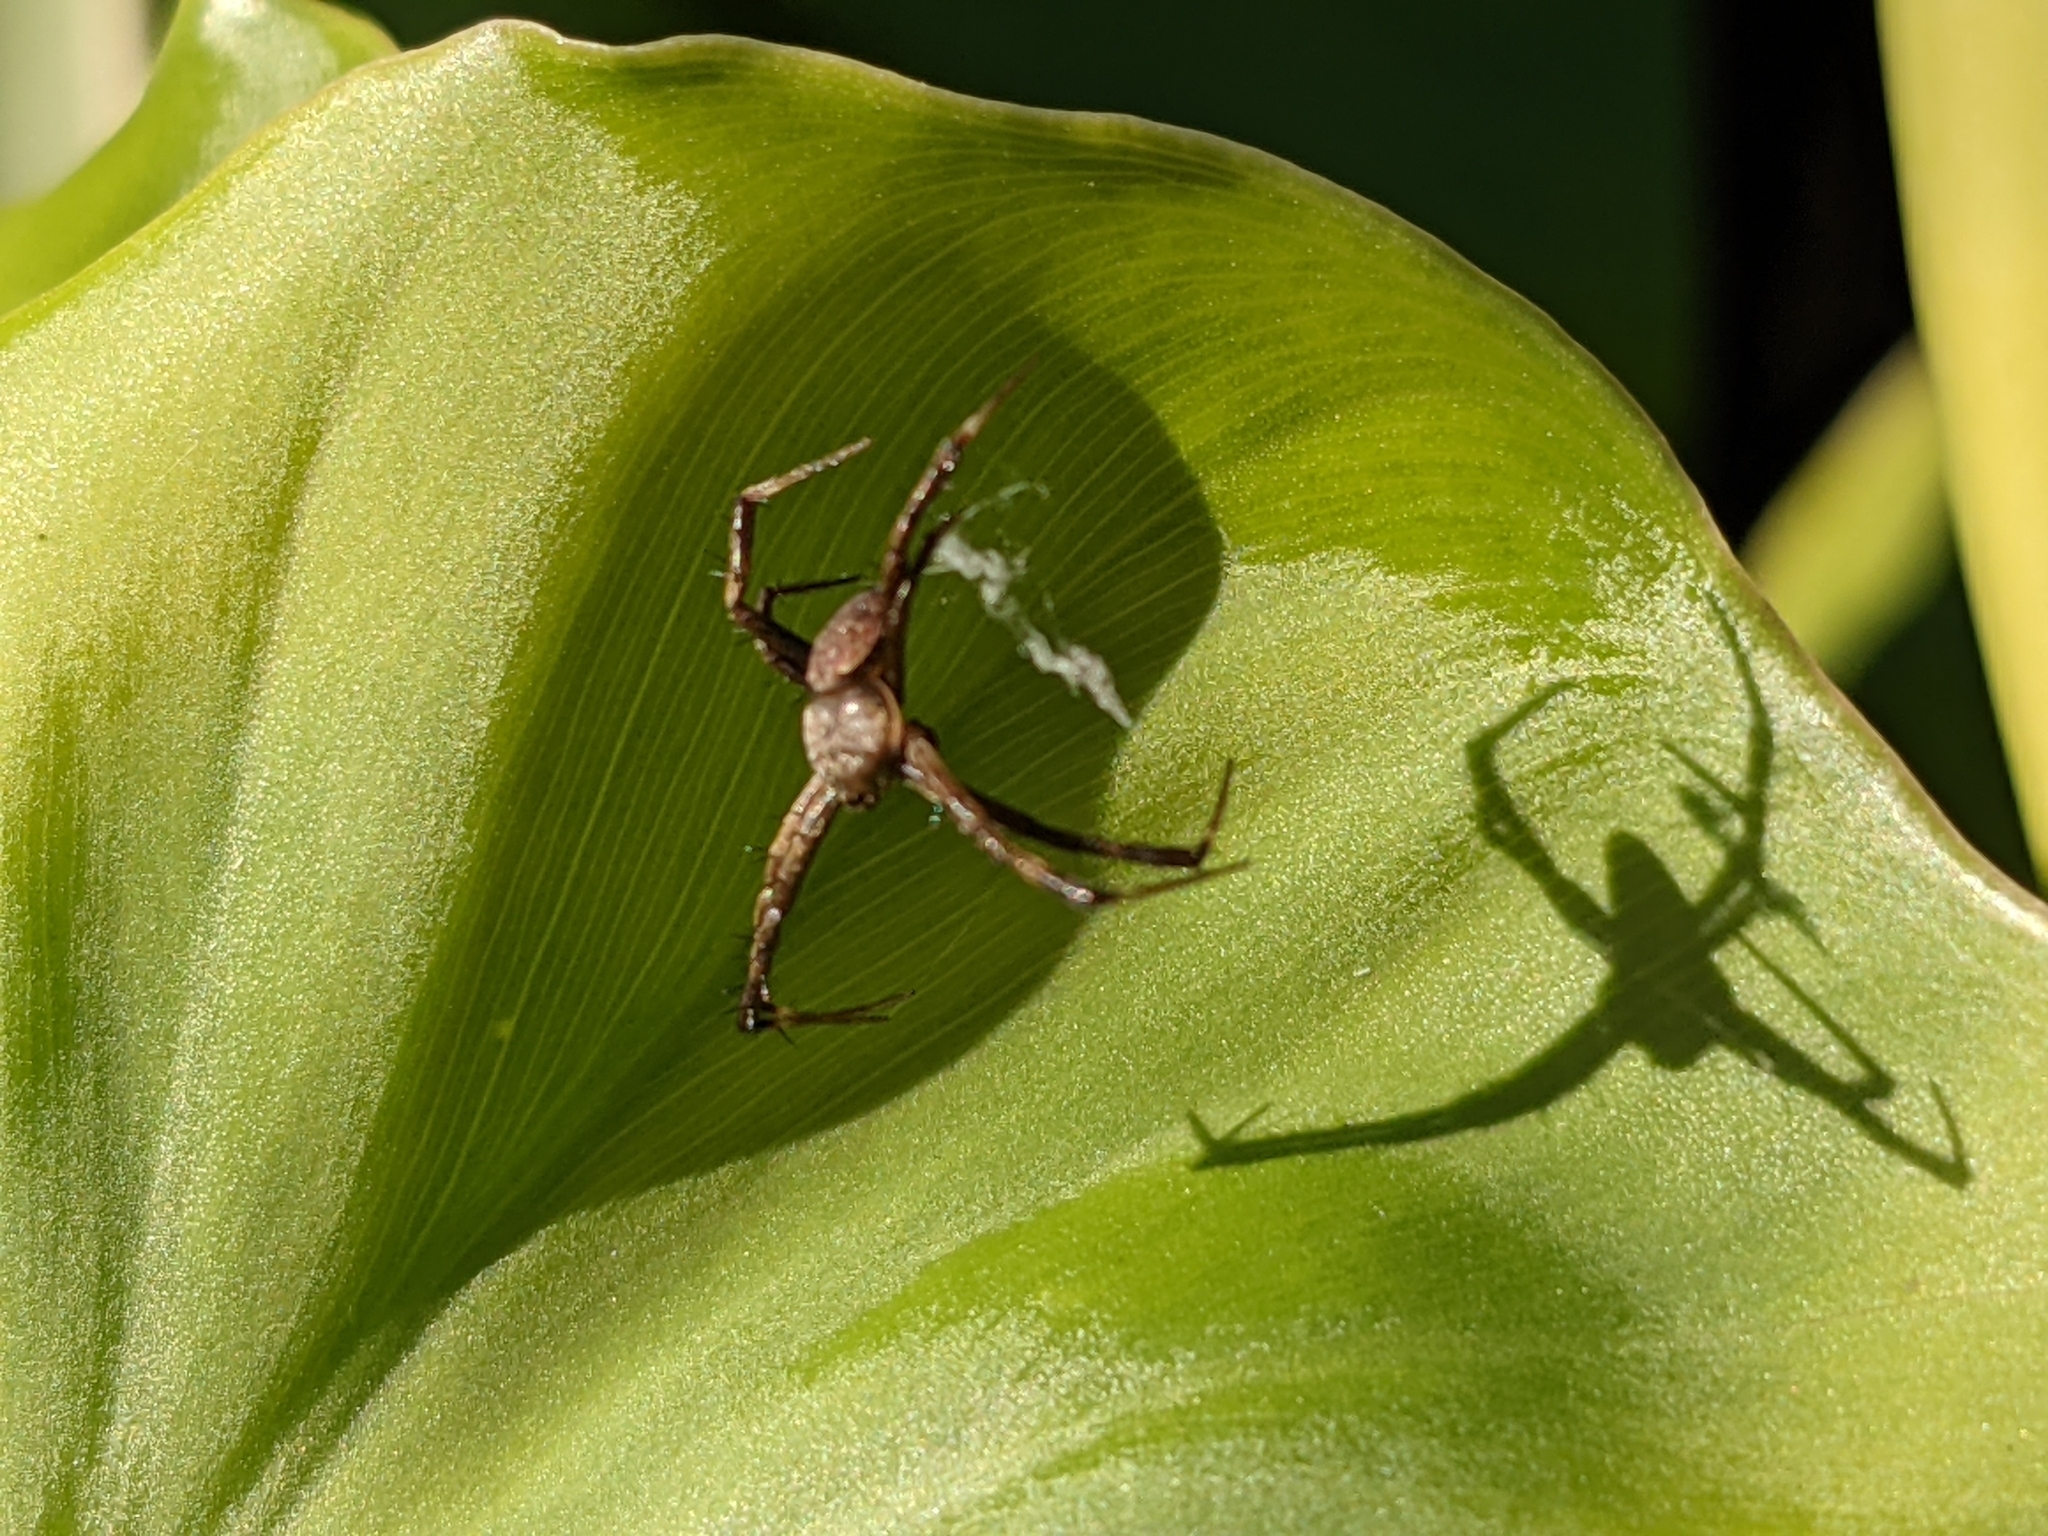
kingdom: Animalia
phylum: Arthropoda
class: Arachnida
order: Araneae
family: Araneidae
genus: Argiope
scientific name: Argiope appensa
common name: Garden spider
